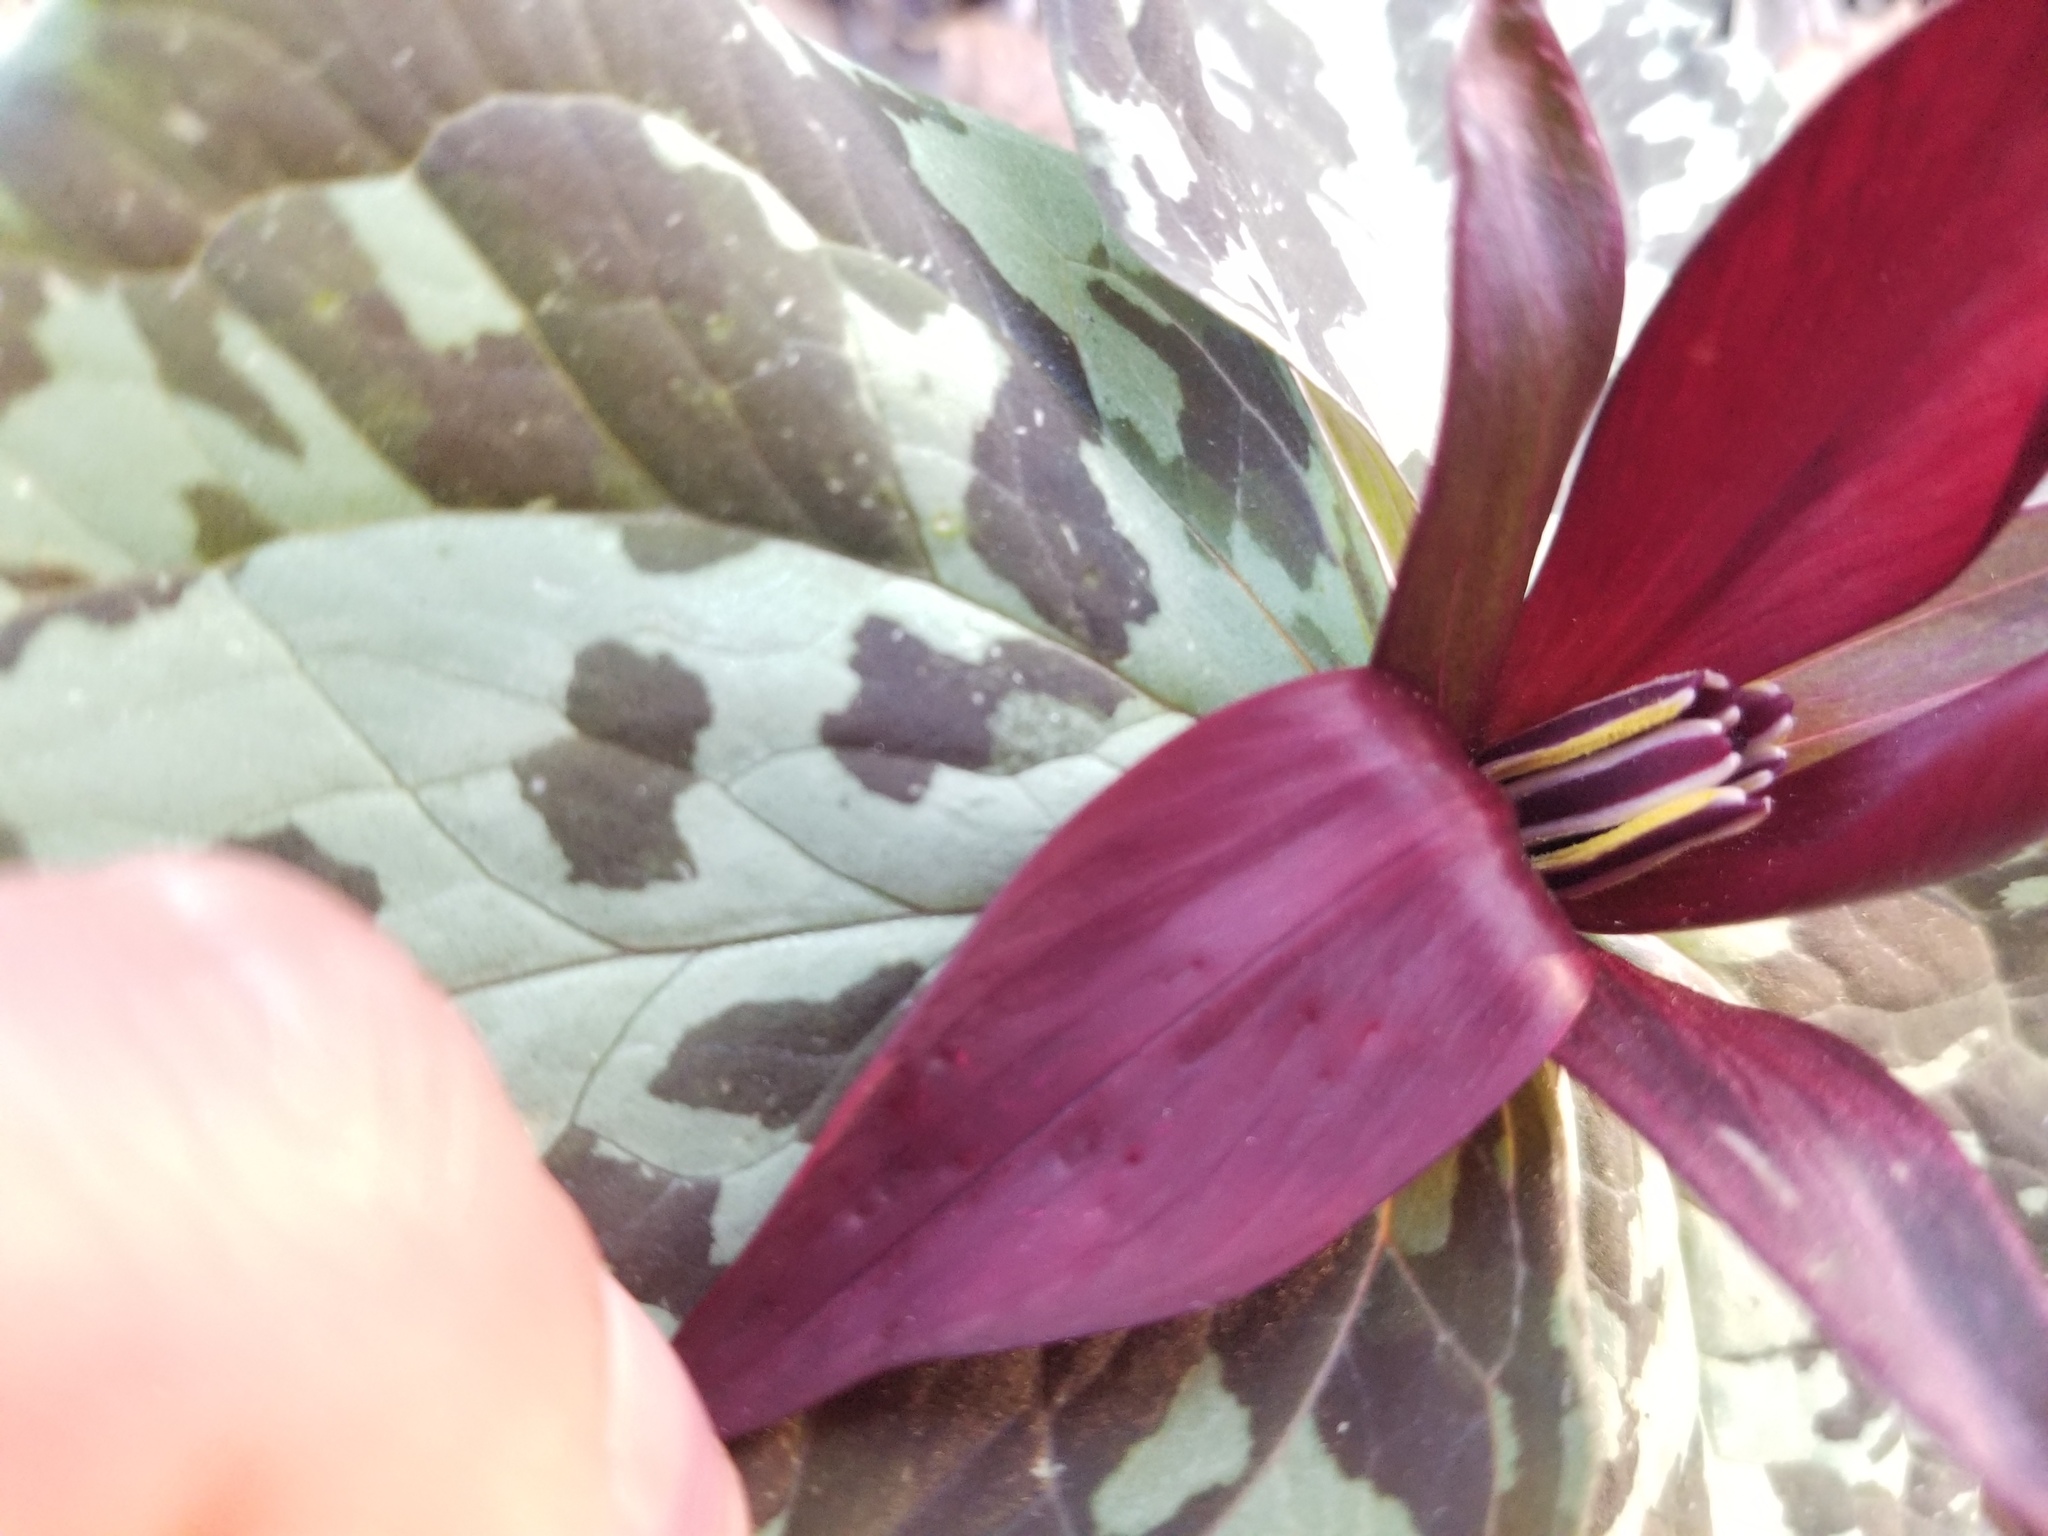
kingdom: Plantae
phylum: Tracheophyta
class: Liliopsida
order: Liliales
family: Melanthiaceae
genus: Trillium
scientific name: Trillium cuneatum
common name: Cuneate trillium
